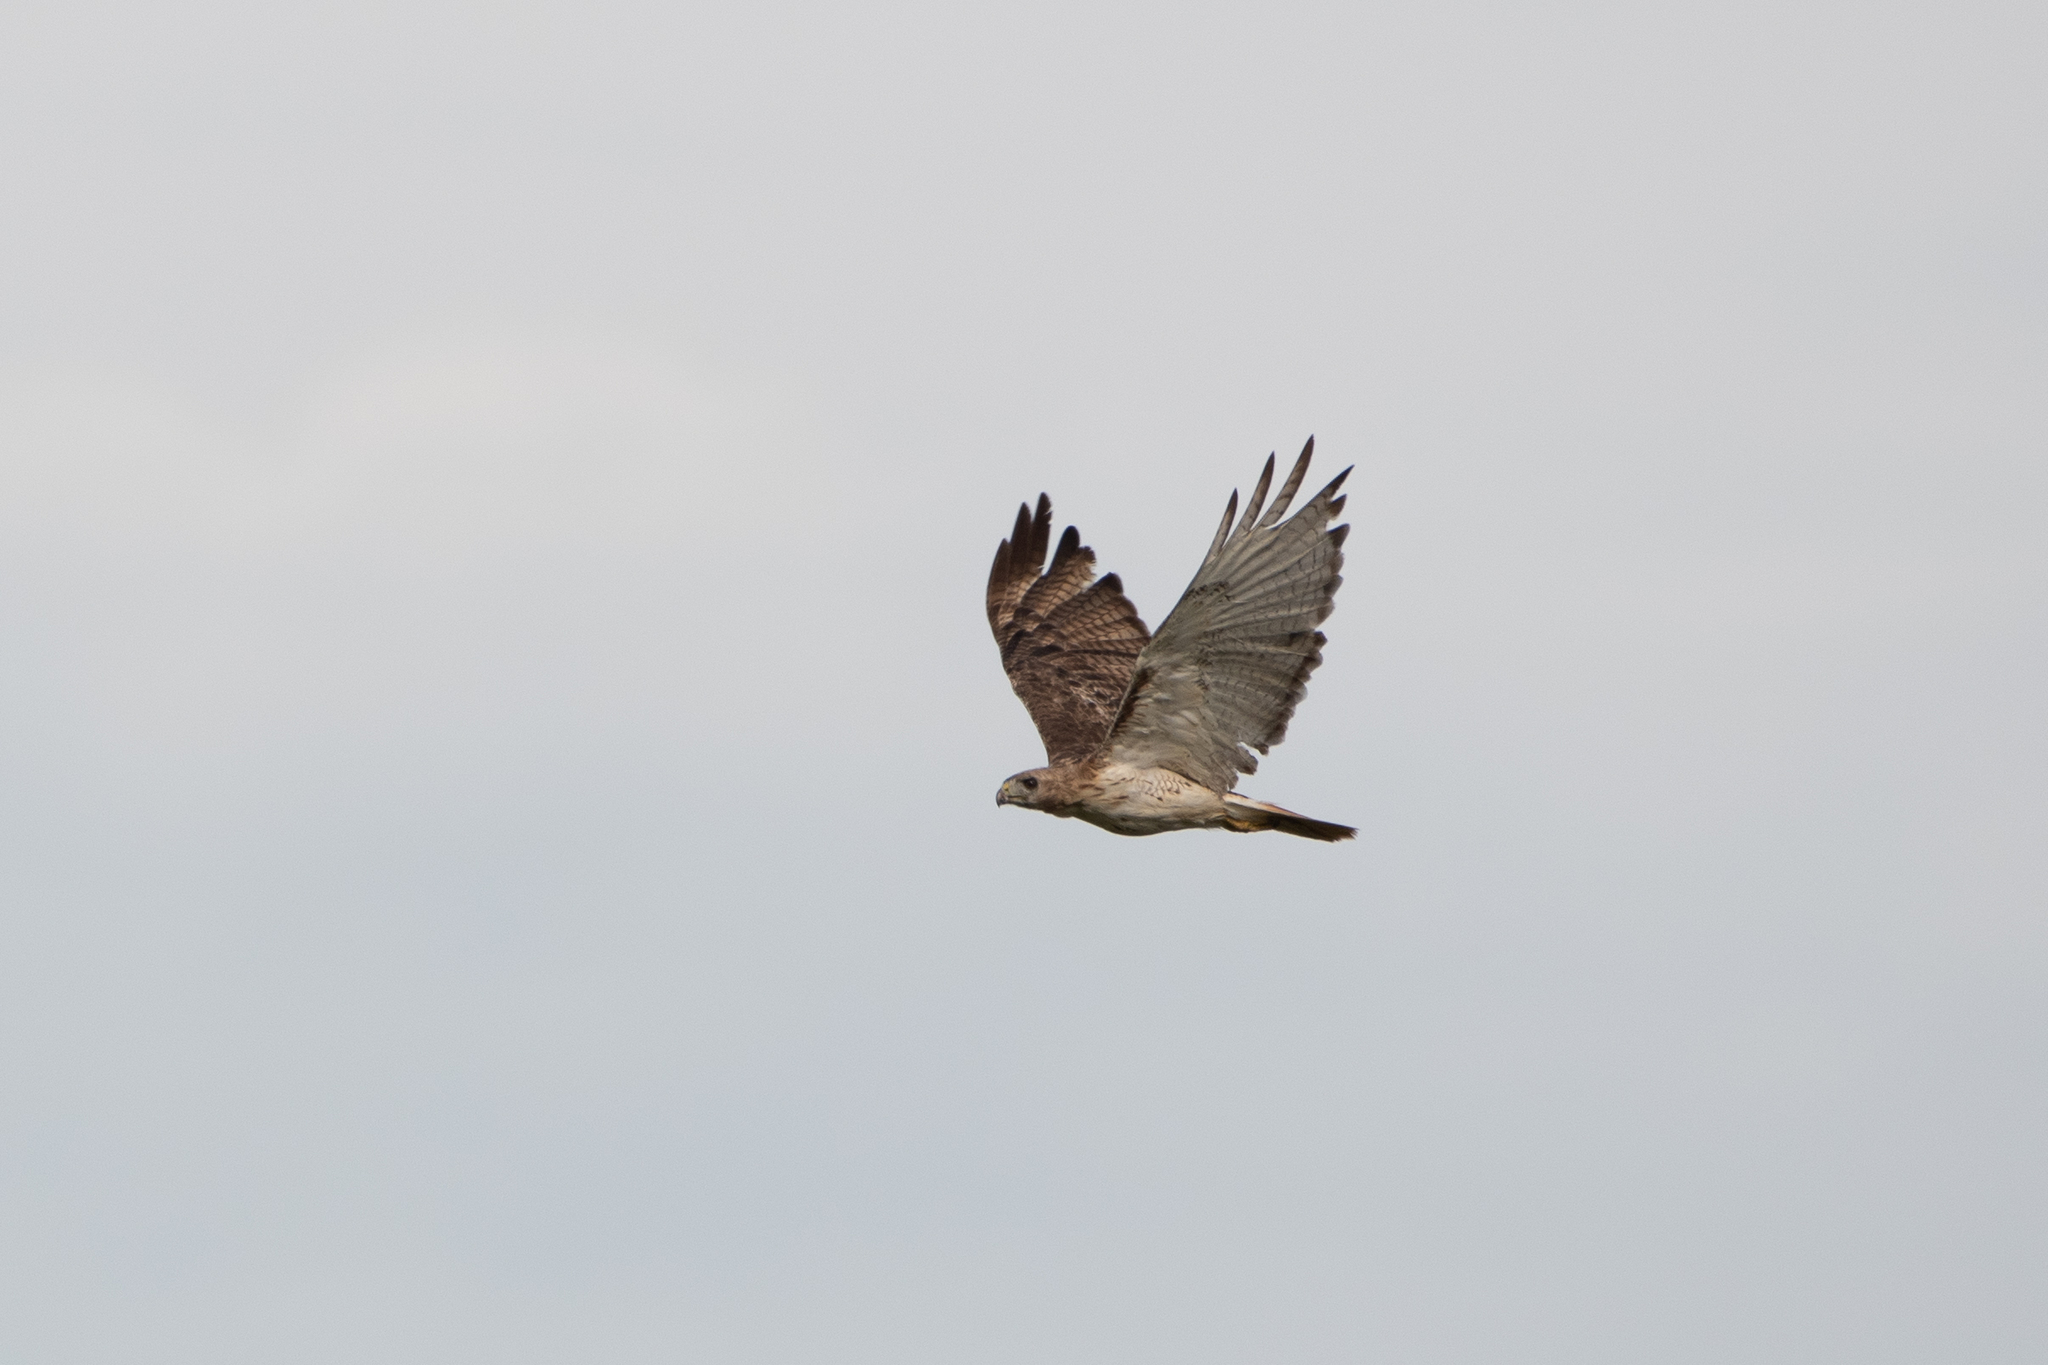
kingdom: Animalia
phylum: Chordata
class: Aves
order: Accipitriformes
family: Accipitridae
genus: Buteo
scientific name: Buteo jamaicensis
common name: Red-tailed hawk
